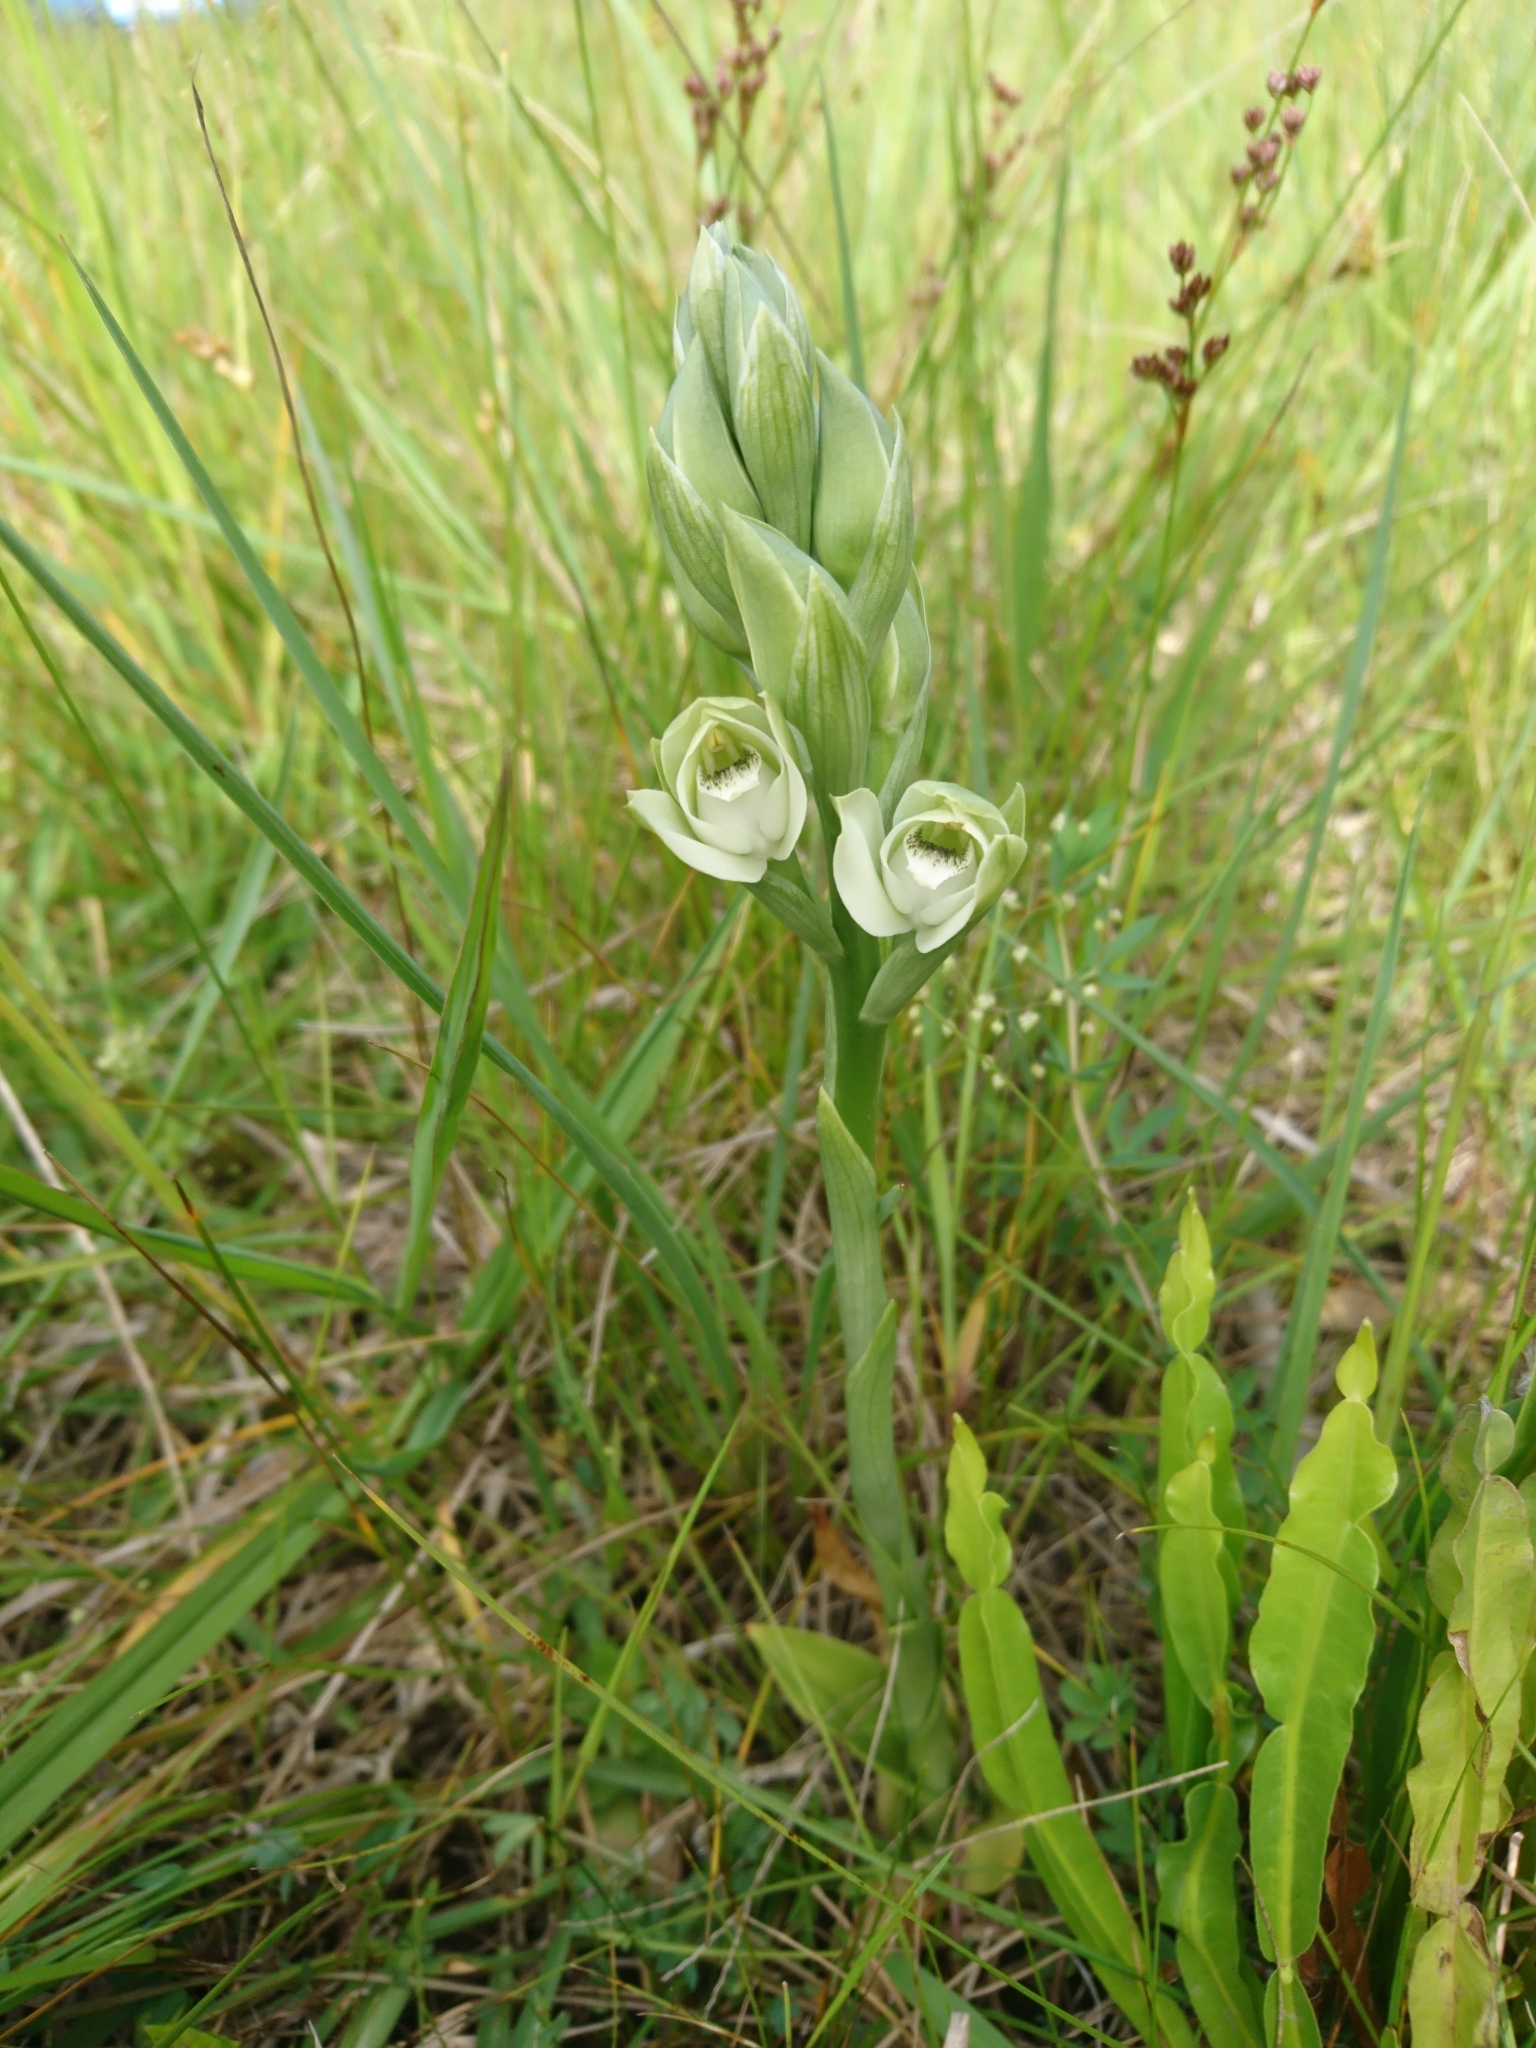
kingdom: Plantae
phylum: Tracheophyta
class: Liliopsida
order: Asparagales
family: Orchidaceae
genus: Chloraea
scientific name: Chloraea membranacea
